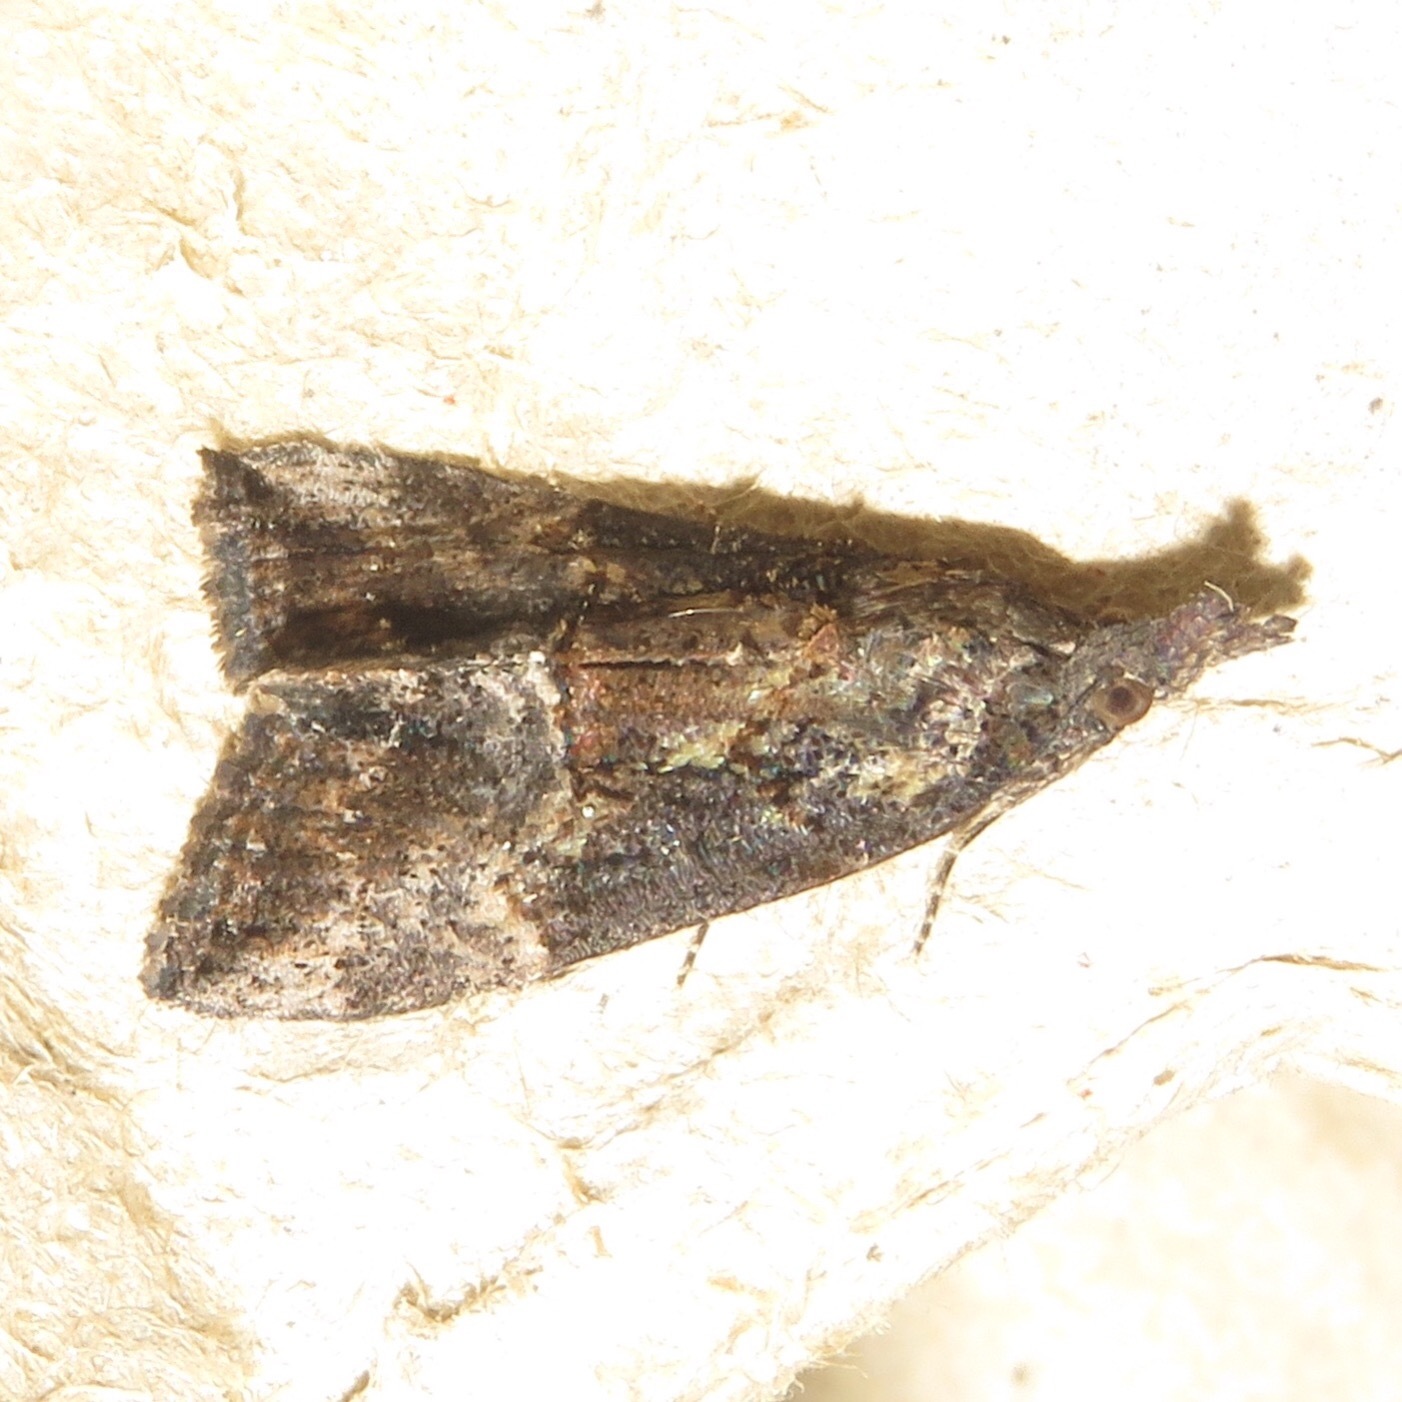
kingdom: Animalia
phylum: Arthropoda
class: Insecta
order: Lepidoptera
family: Erebidae
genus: Hypena
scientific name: Hypena scabra
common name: Green cloverworm
